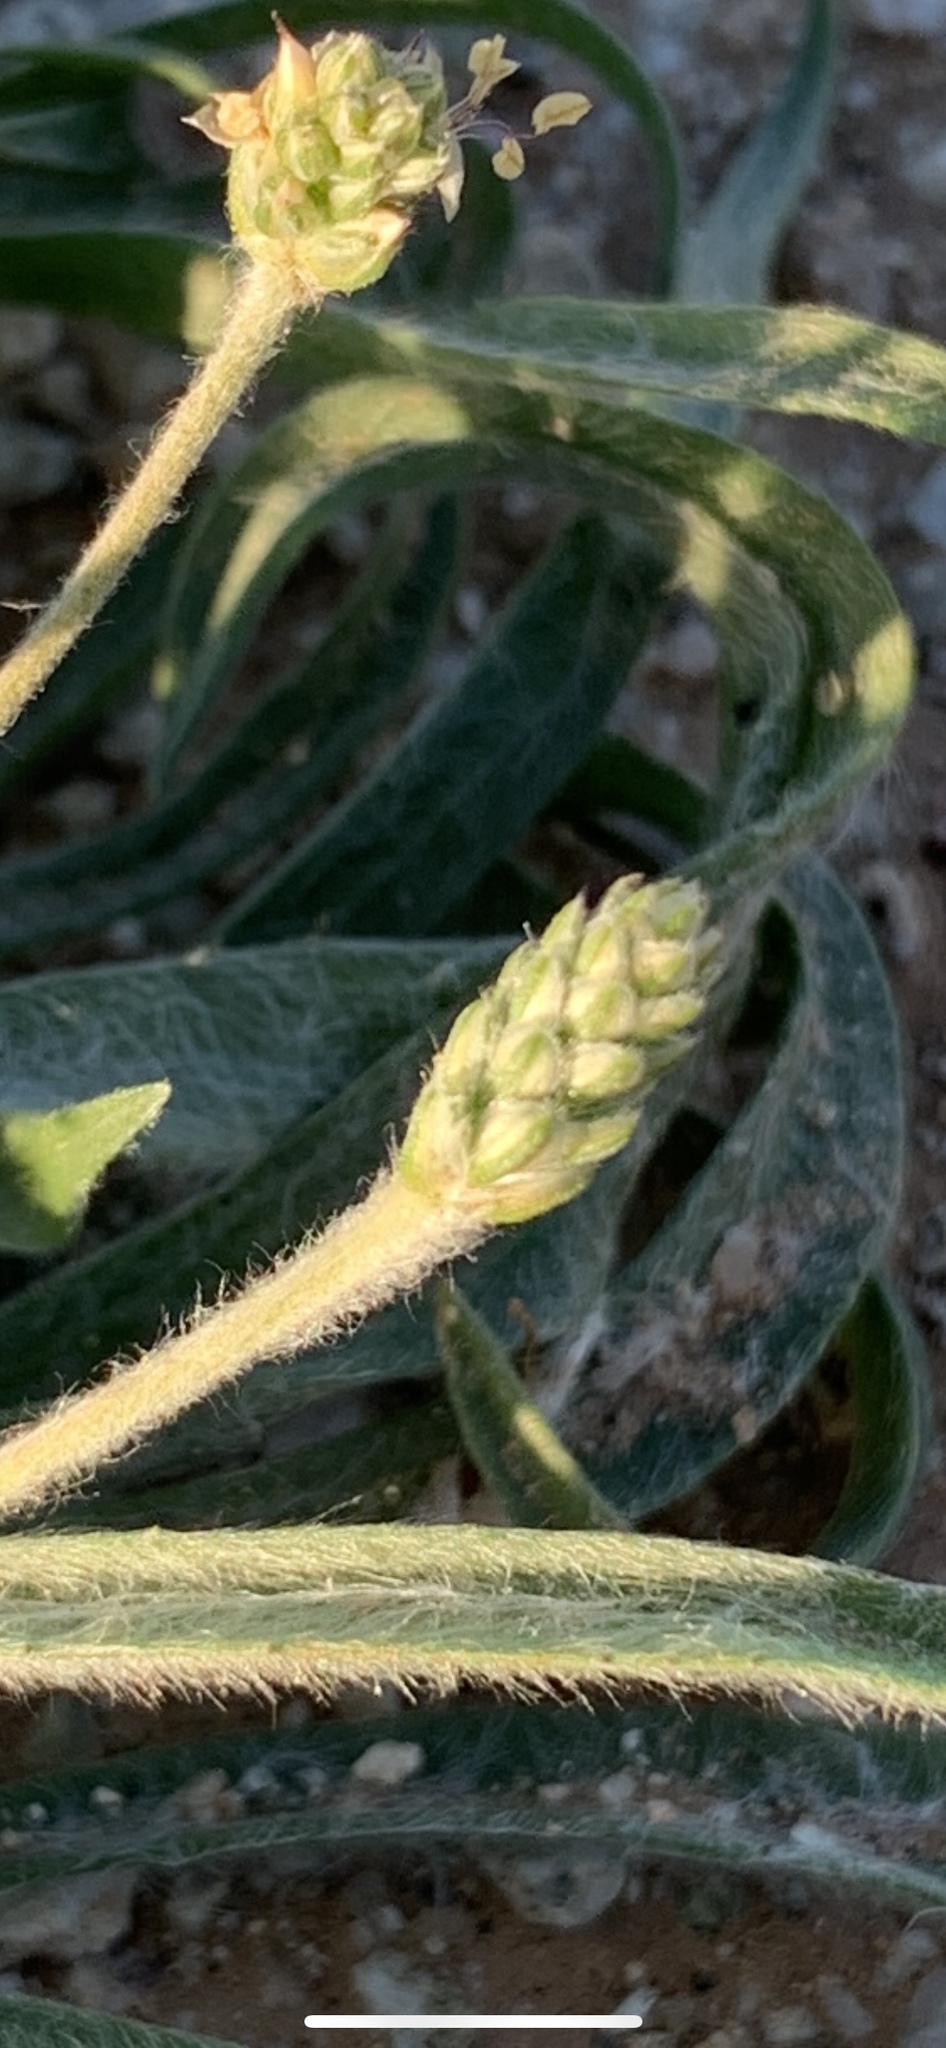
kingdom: Plantae
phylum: Tracheophyta
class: Magnoliopsida
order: Lamiales
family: Plantaginaceae
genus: Plantago
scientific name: Plantago ovata
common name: Blond plantain
